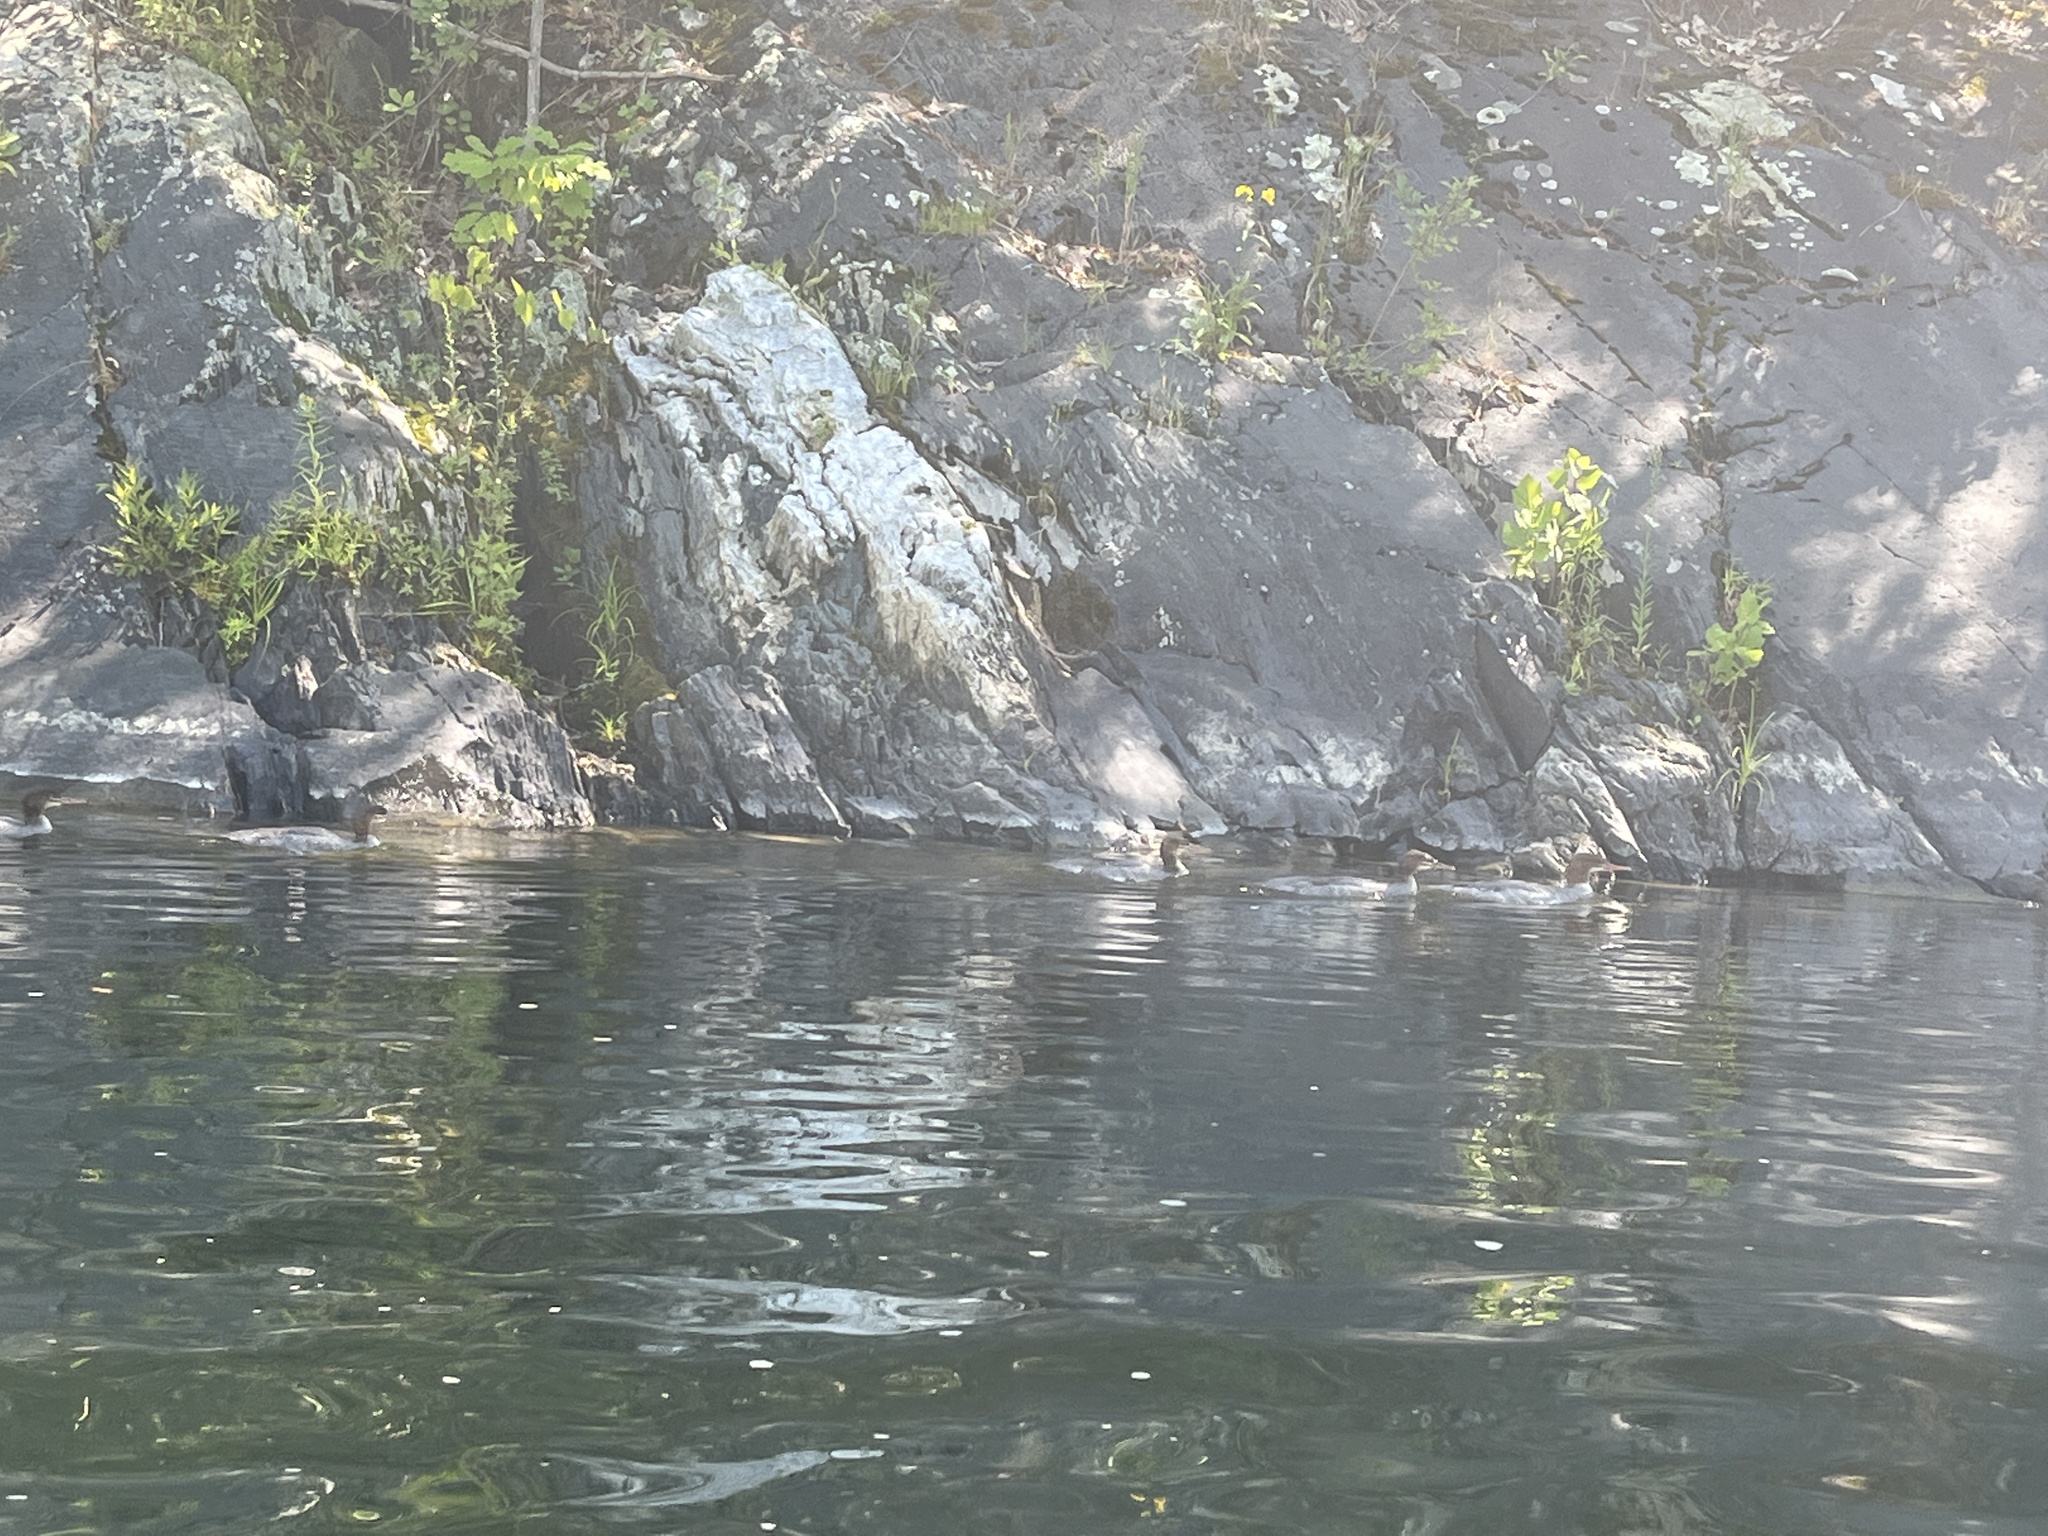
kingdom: Animalia
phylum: Chordata
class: Aves
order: Anseriformes
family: Anatidae
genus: Mergus
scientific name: Mergus merganser
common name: Common merganser
